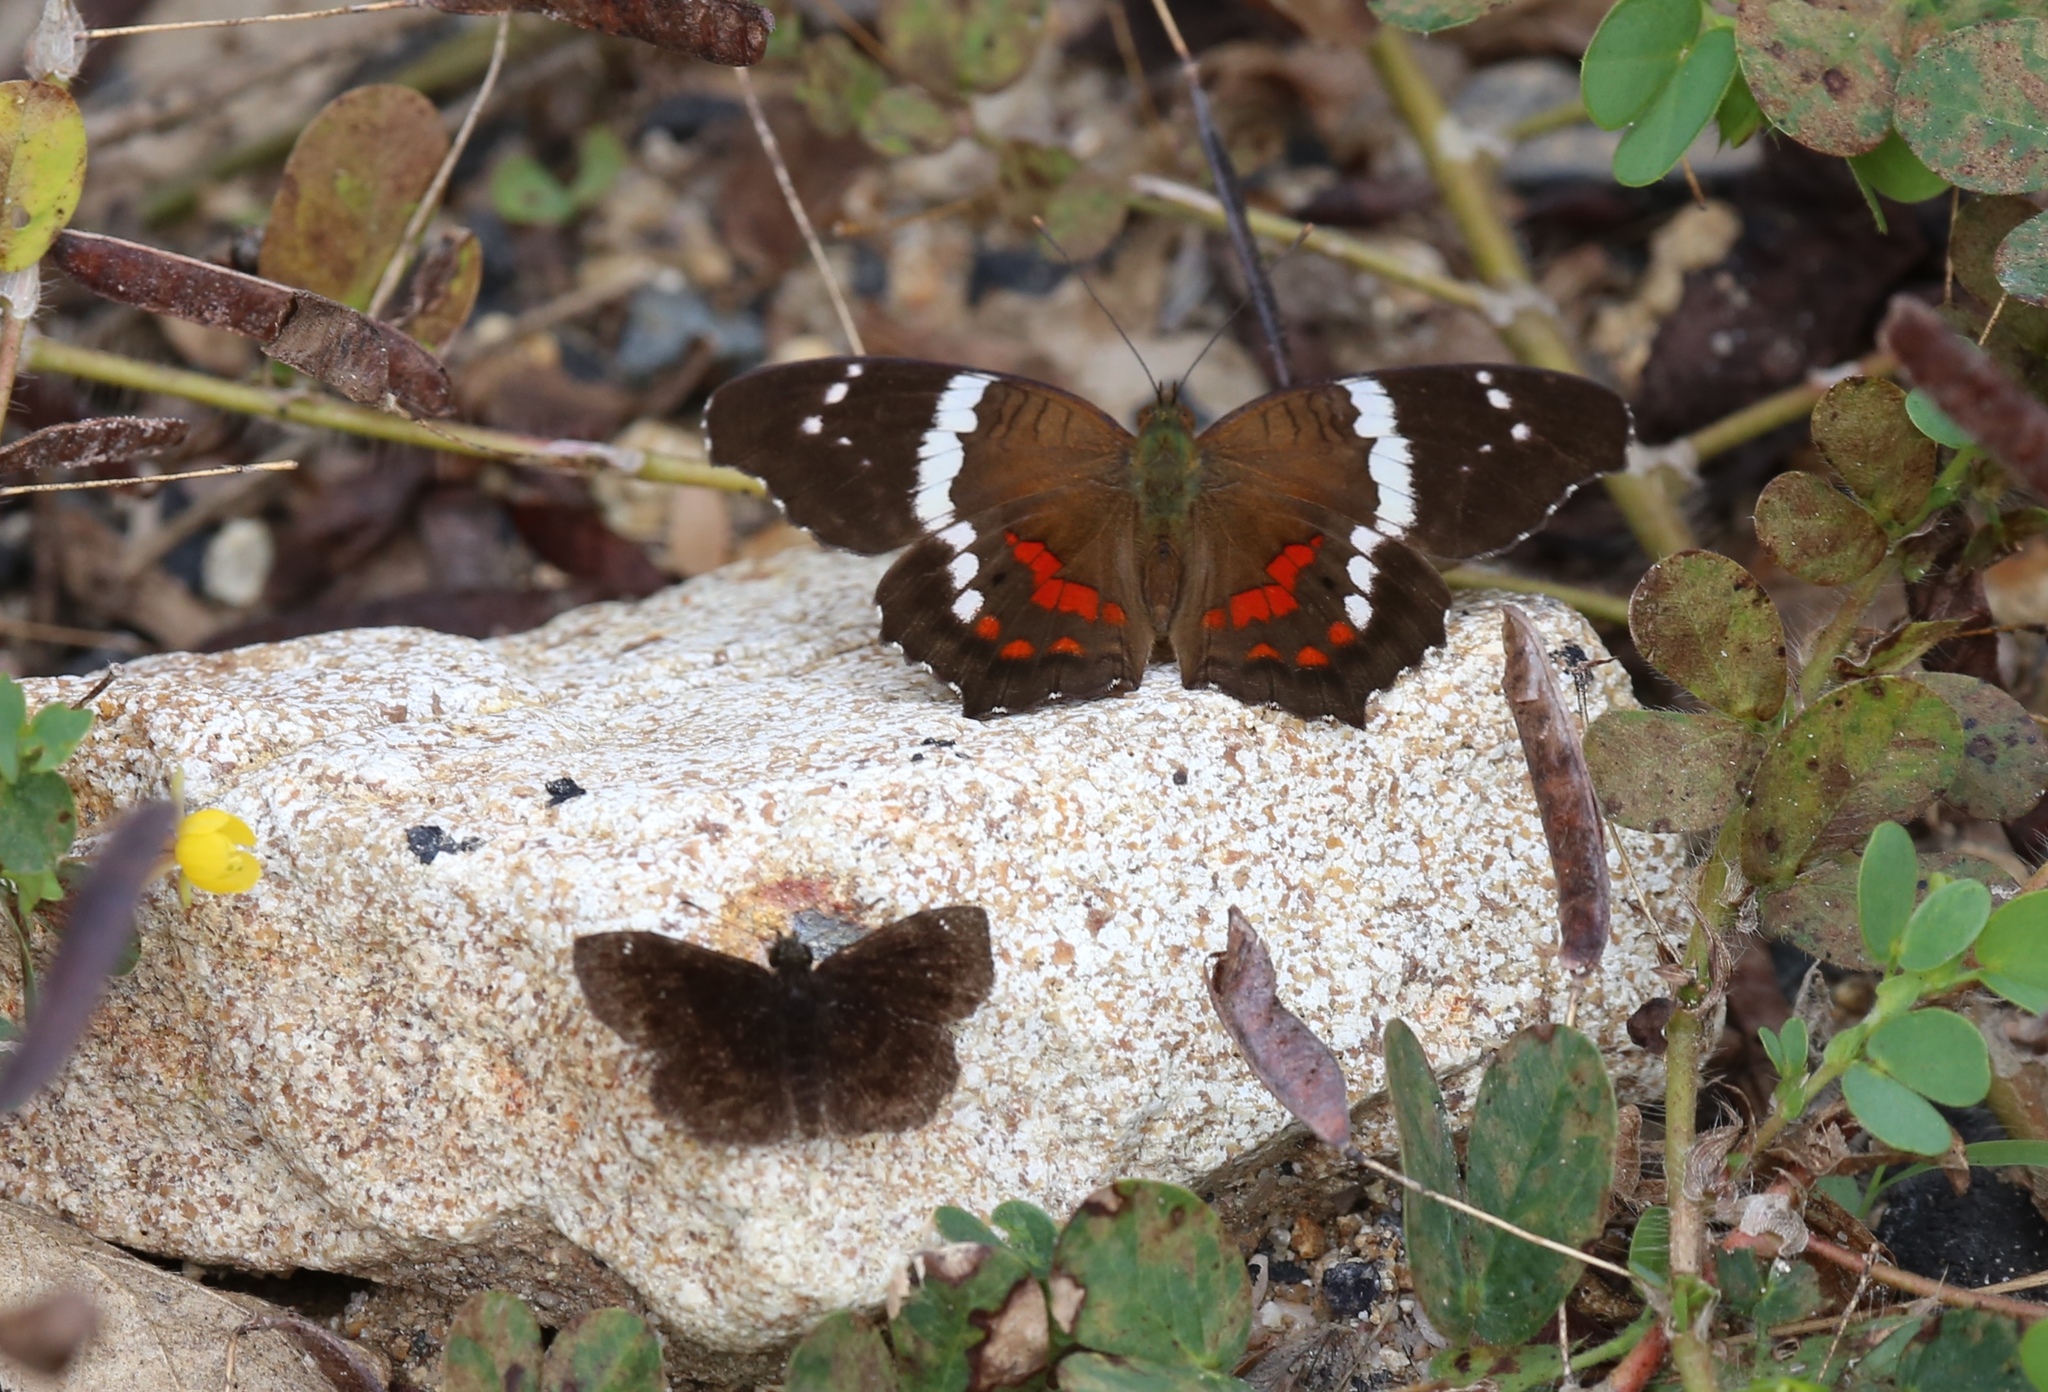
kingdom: Animalia
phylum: Arthropoda
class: Insecta
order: Lepidoptera
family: Nymphalidae
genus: Anartia
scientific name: Anartia fatima
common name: Banded peacock
